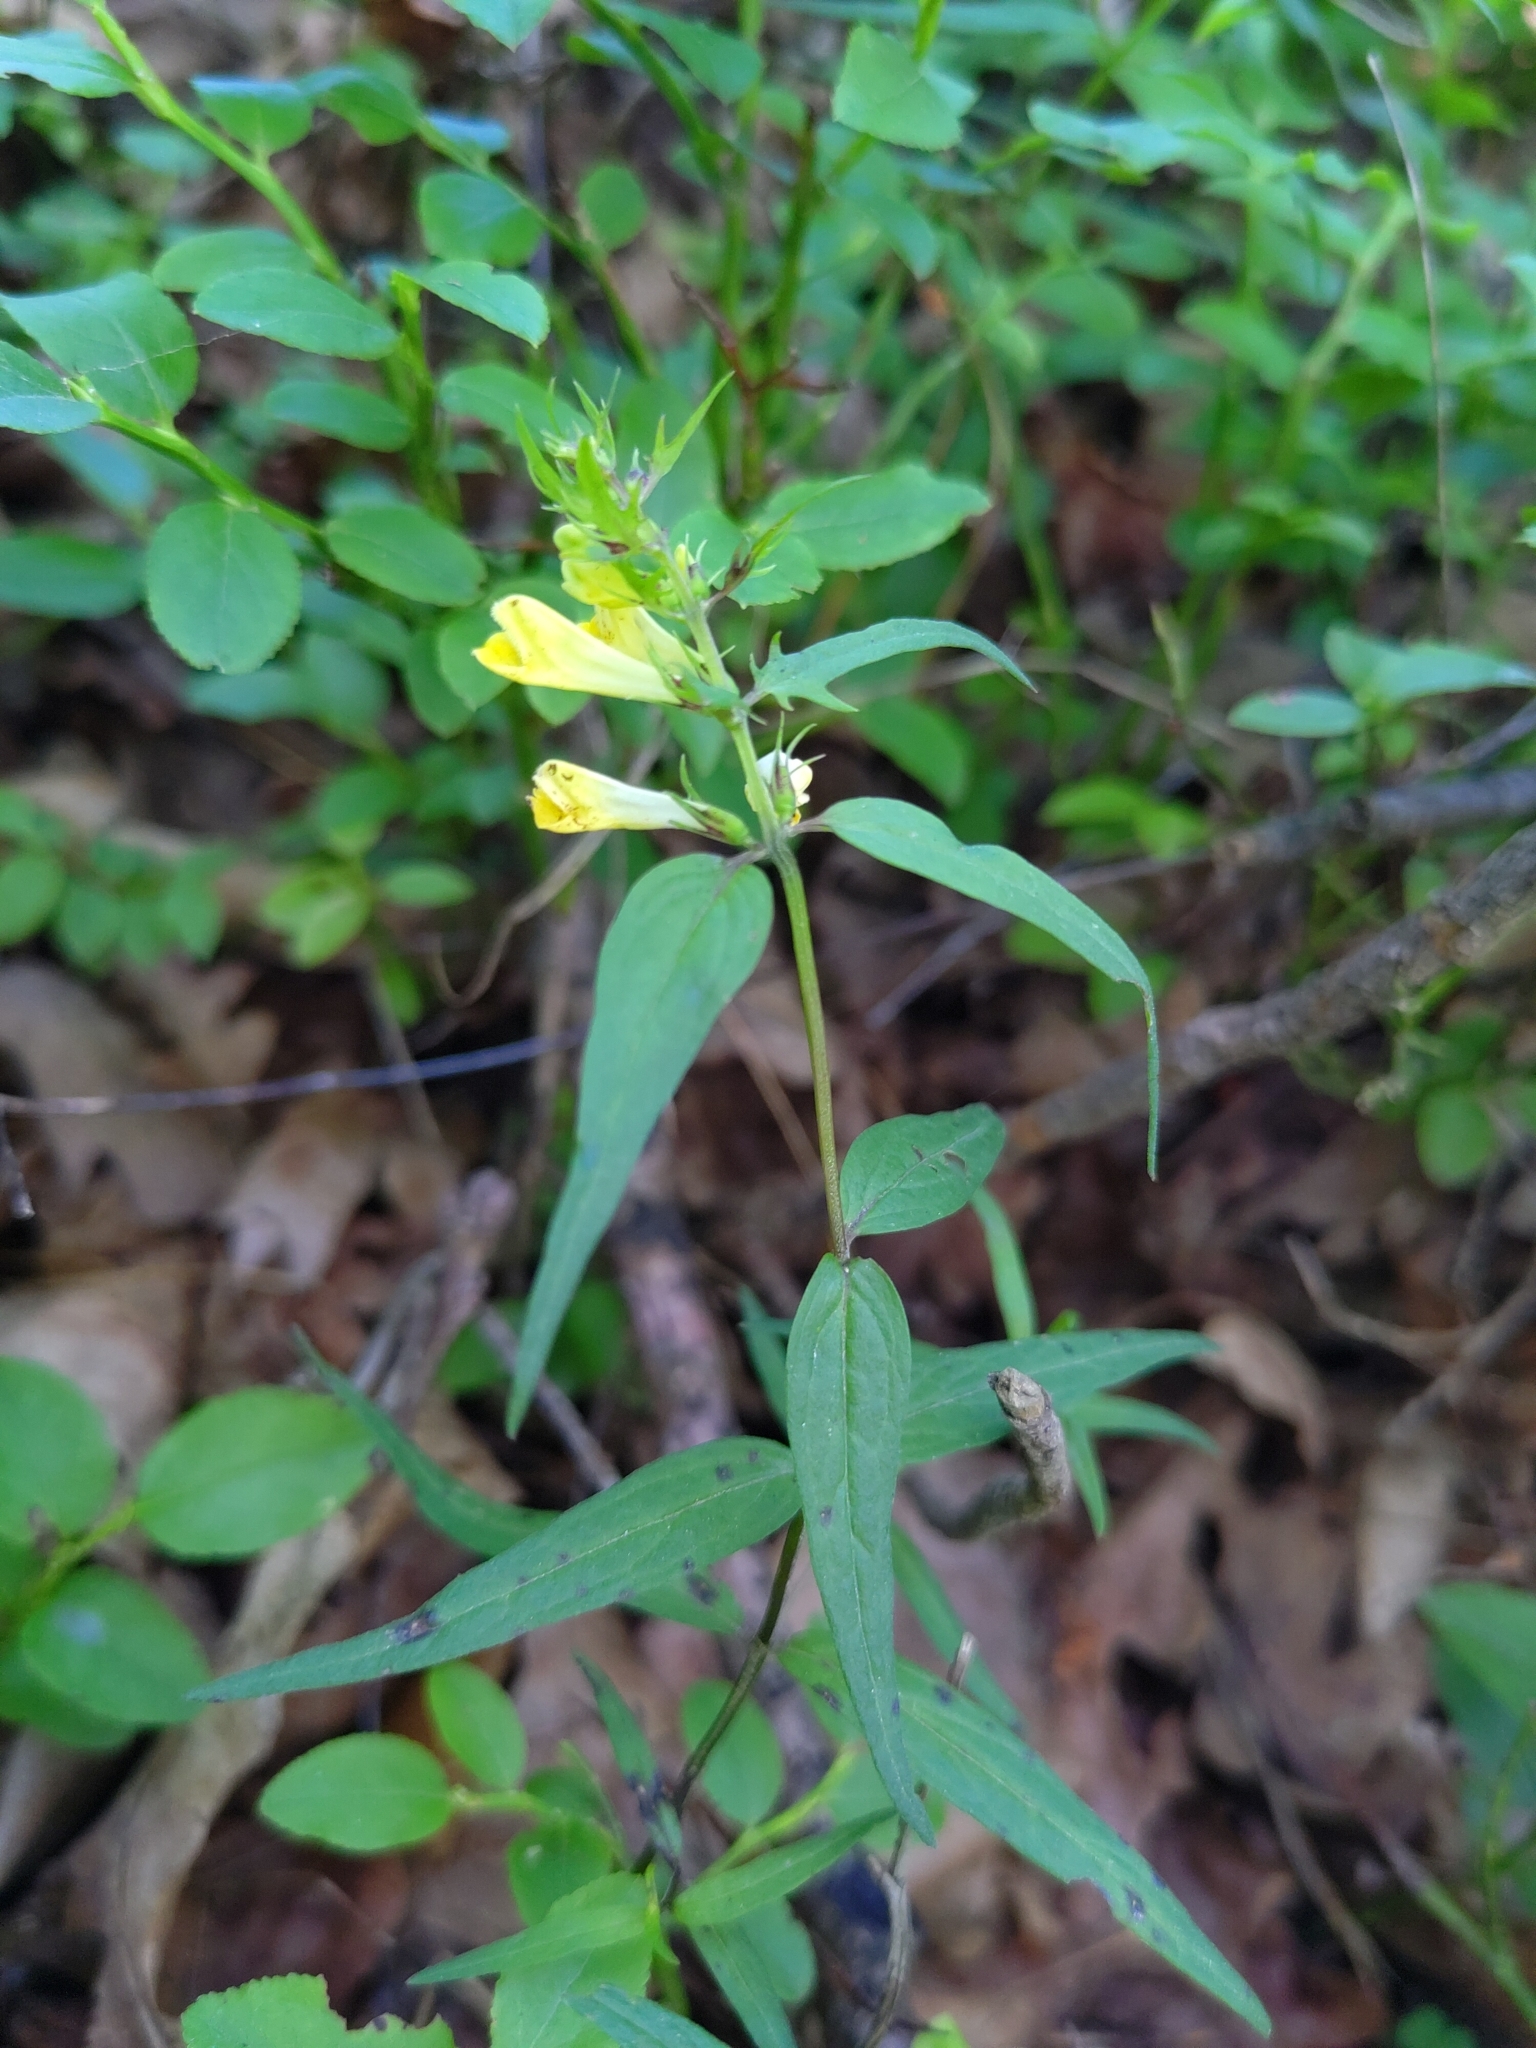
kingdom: Plantae
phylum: Tracheophyta
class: Magnoliopsida
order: Lamiales
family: Orobanchaceae
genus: Melampyrum
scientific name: Melampyrum pratense
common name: Common cow-wheat
